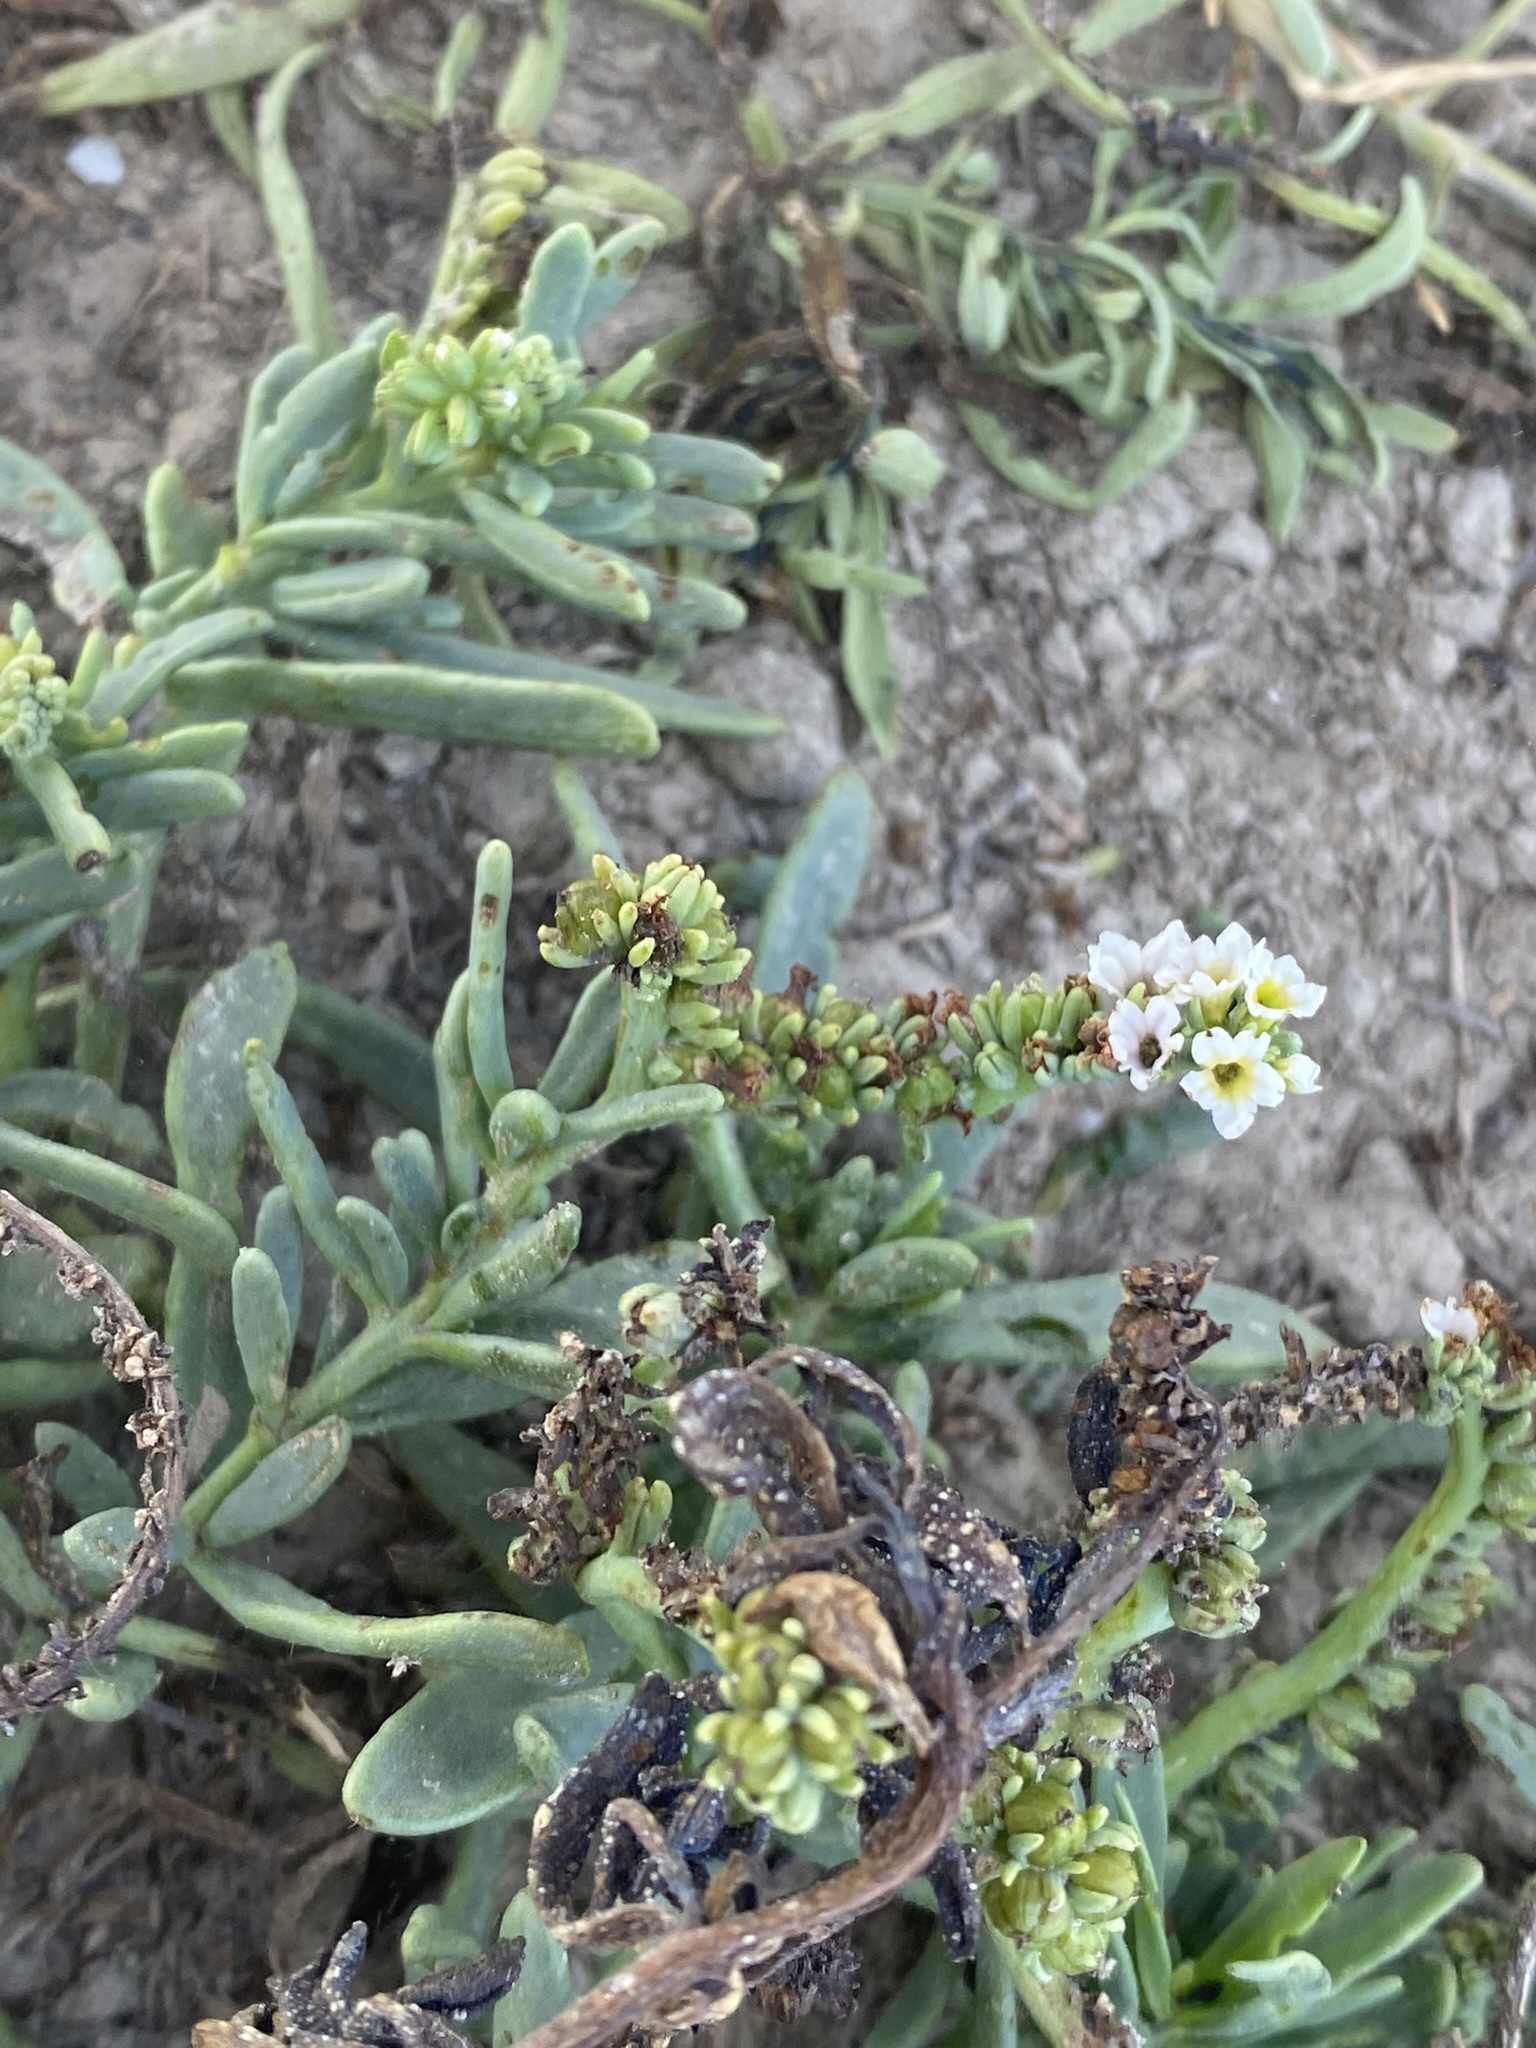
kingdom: Plantae
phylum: Tracheophyta
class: Magnoliopsida
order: Boraginales
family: Heliotropiaceae
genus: Heliotropium
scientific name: Heliotropium curassavicum
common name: Seaside heliotrope
